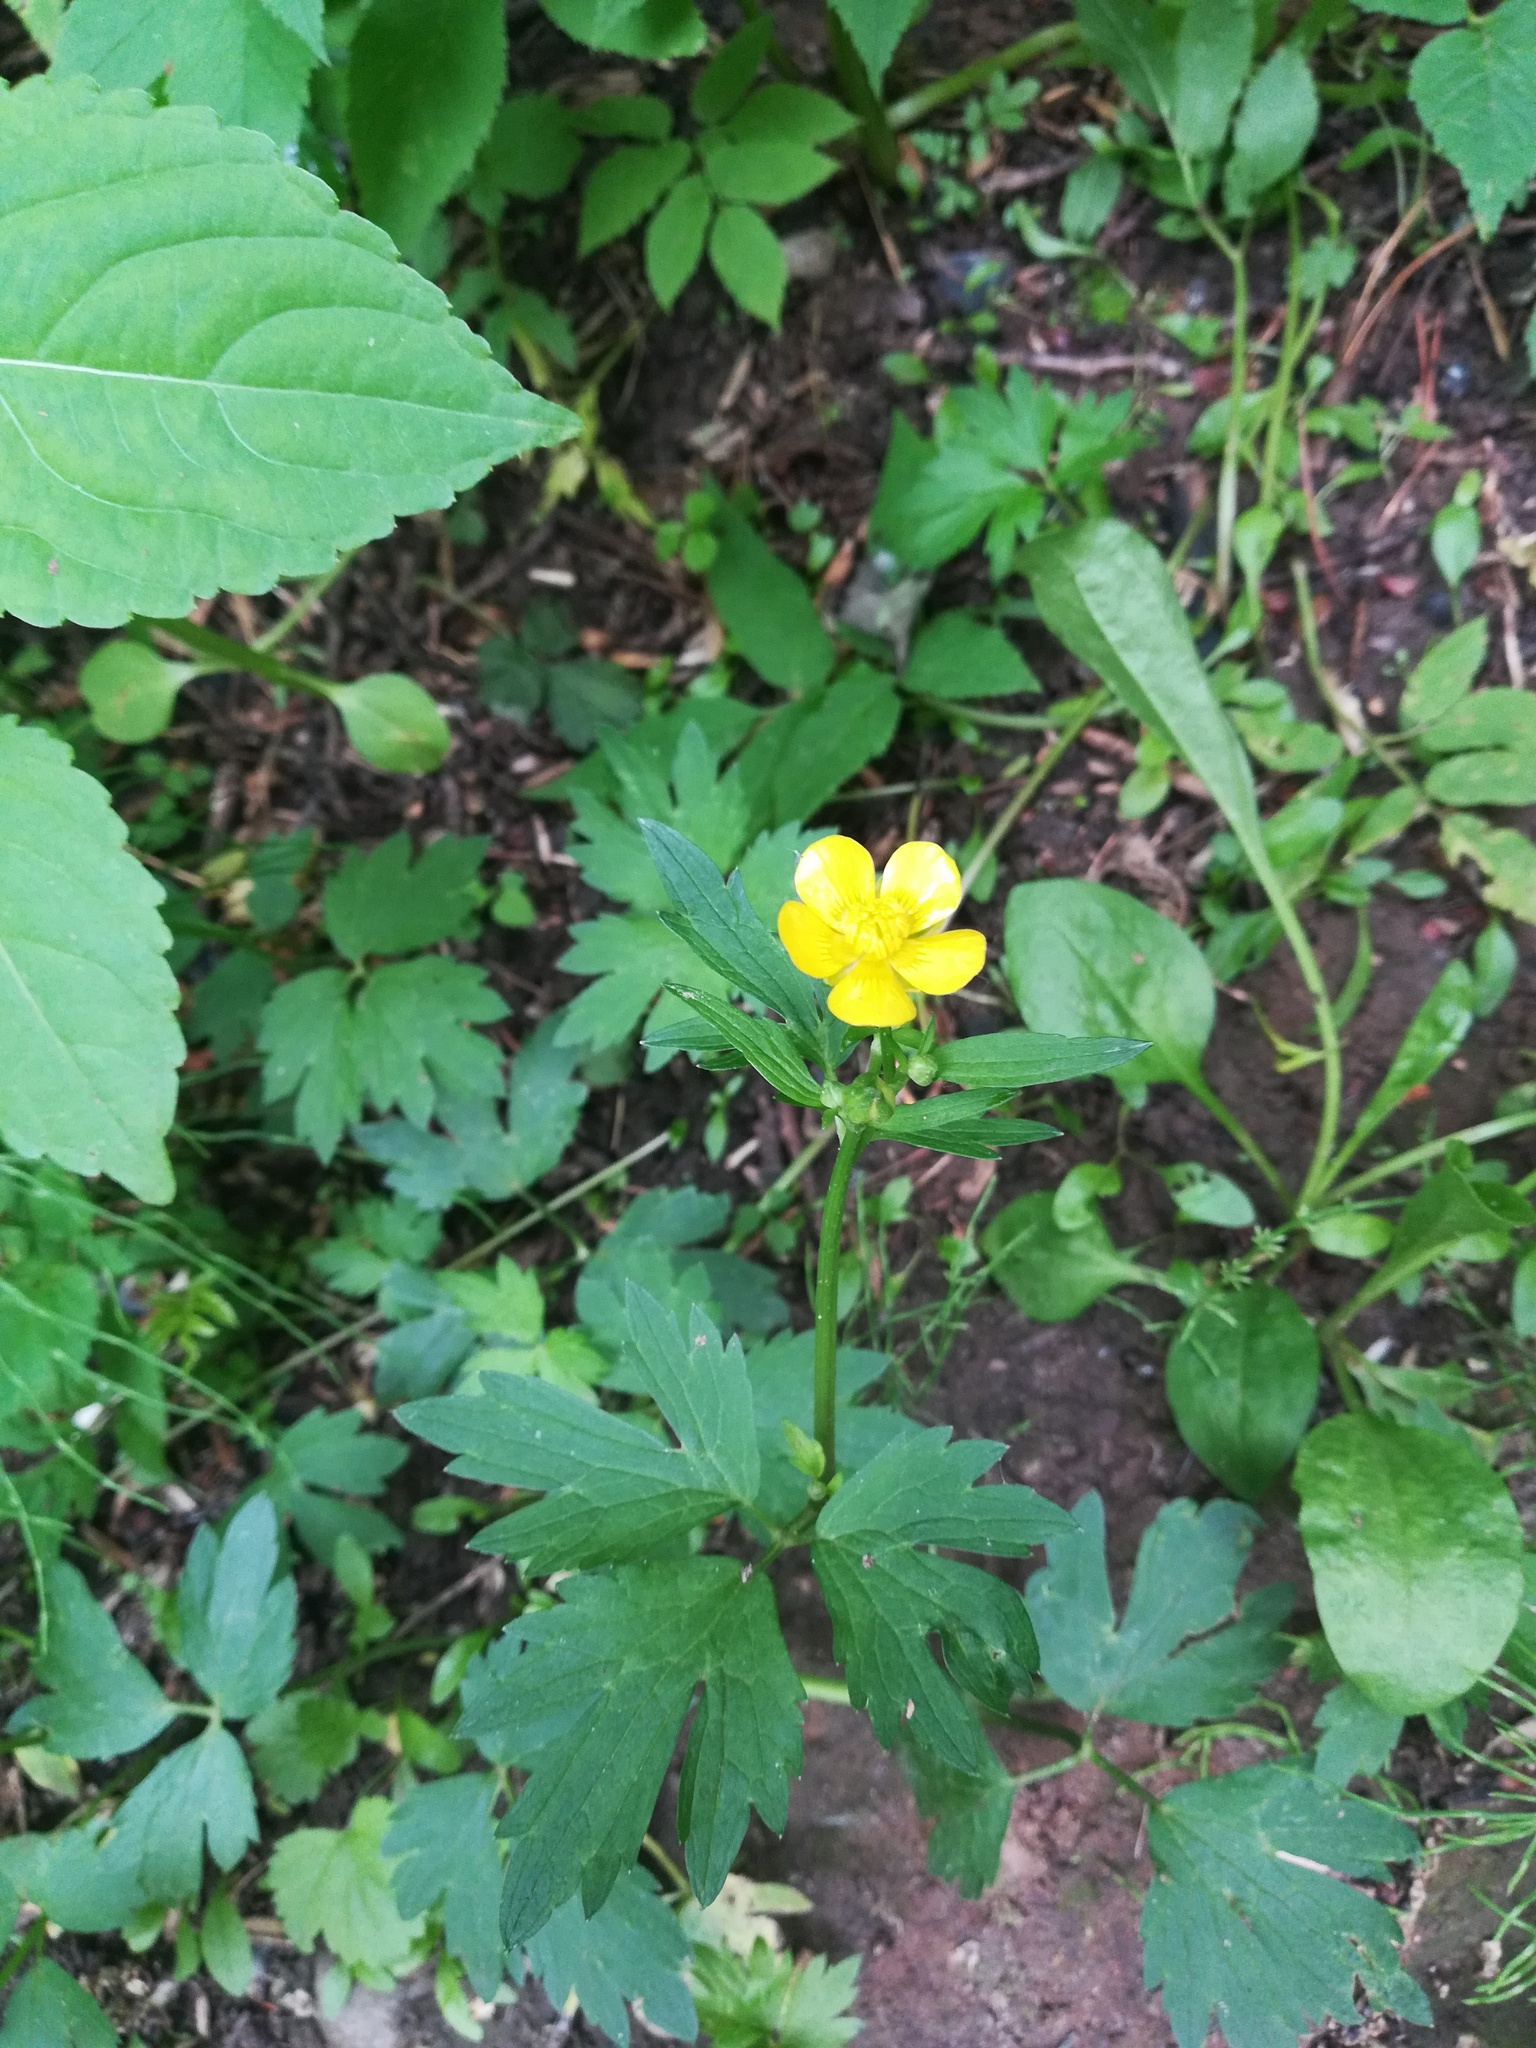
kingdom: Plantae
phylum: Tracheophyta
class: Magnoliopsida
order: Ranunculales
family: Ranunculaceae
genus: Ranunculus
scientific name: Ranunculus repens
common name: Creeping buttercup
